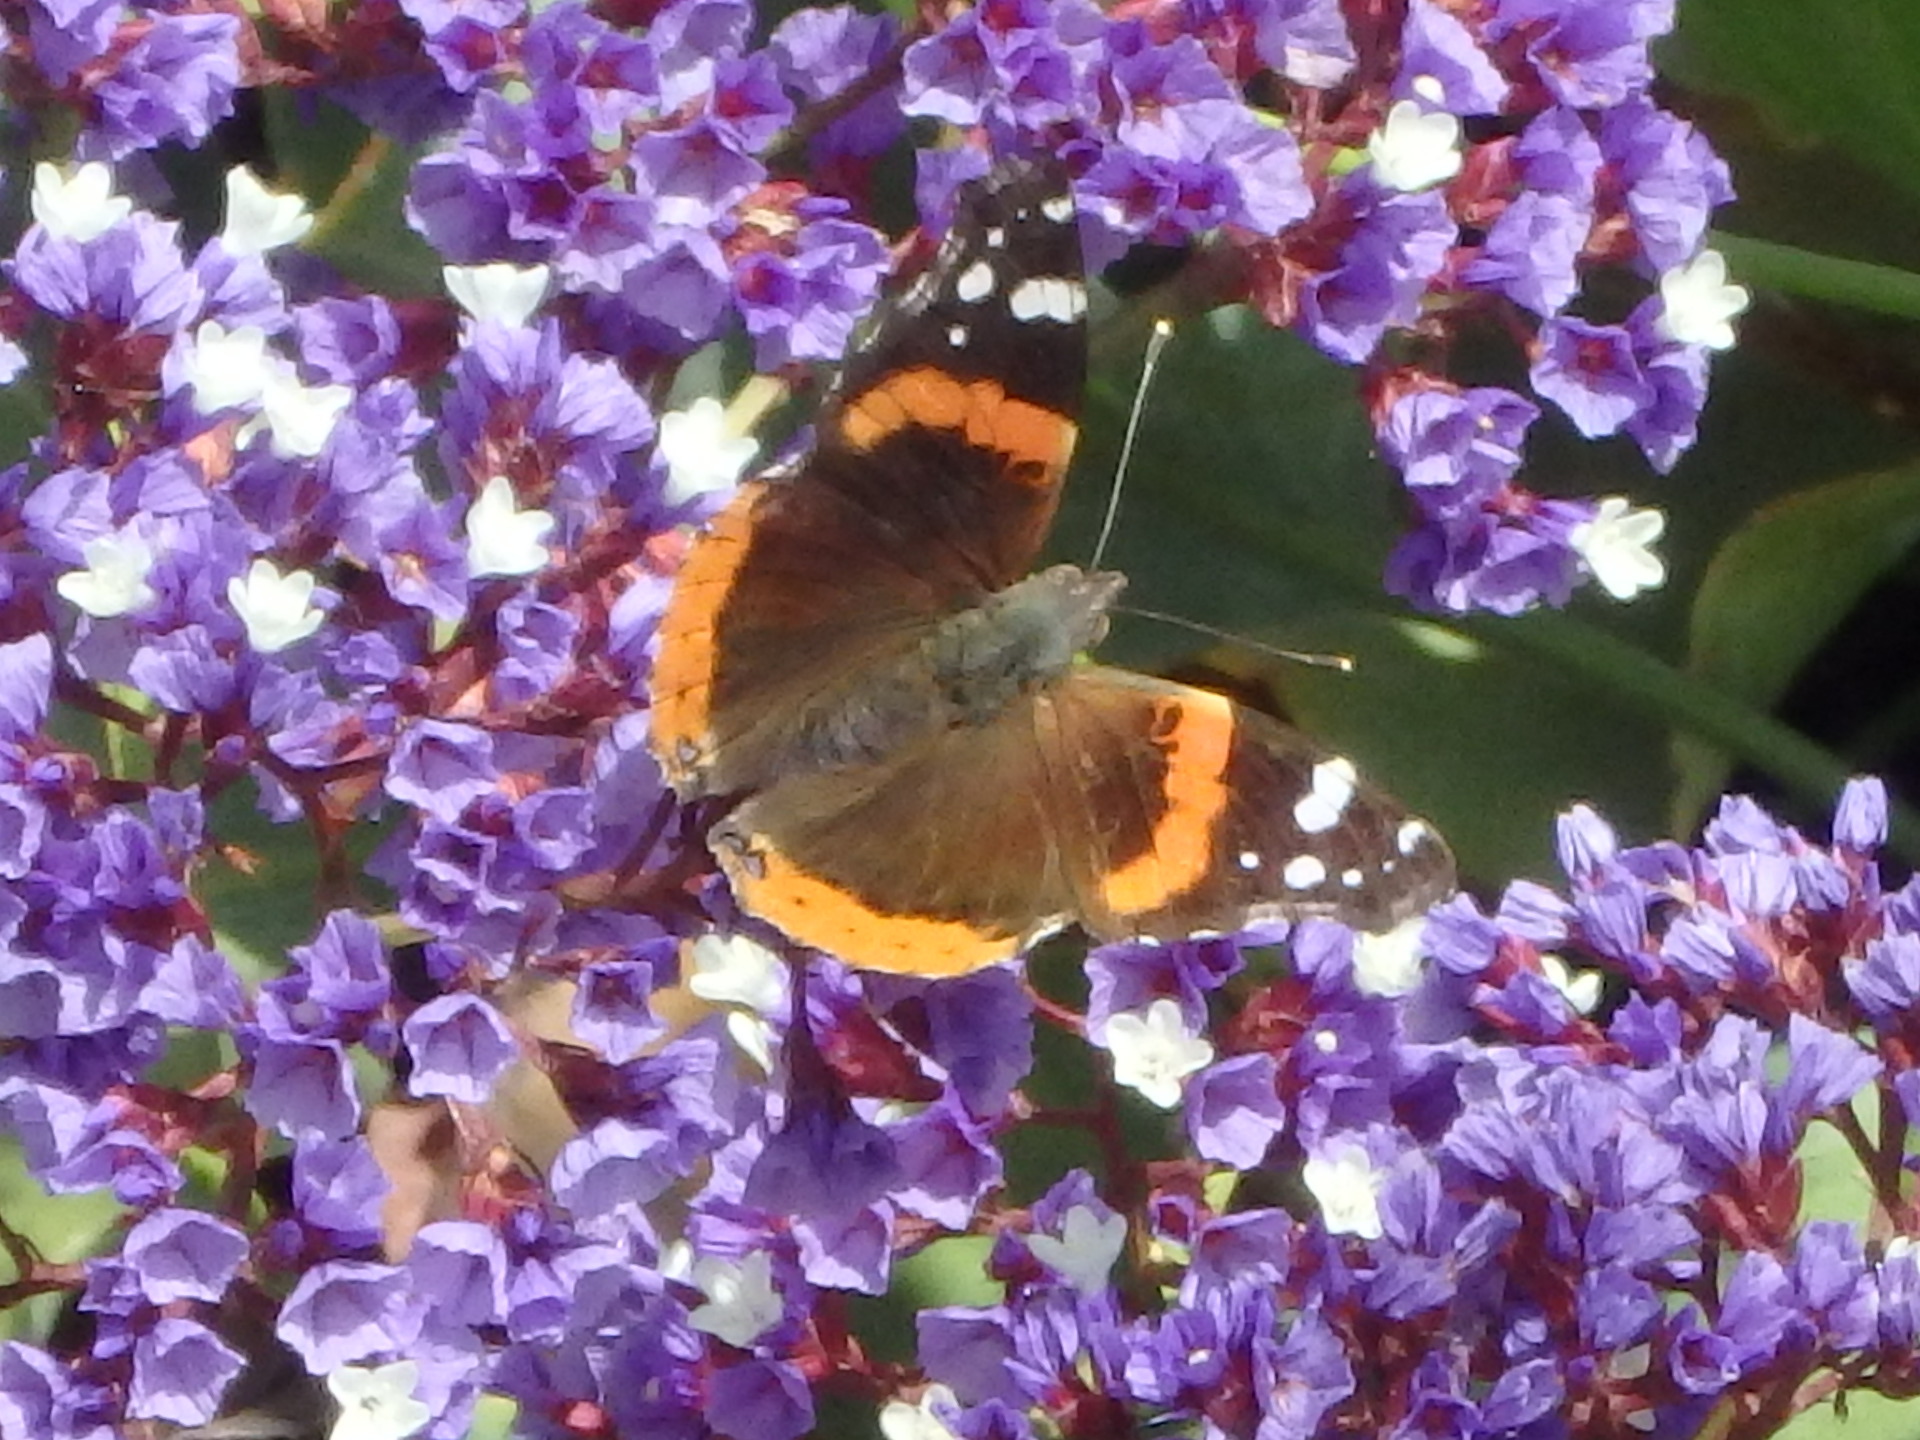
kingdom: Animalia
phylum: Arthropoda
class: Insecta
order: Lepidoptera
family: Nymphalidae
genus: Vanessa
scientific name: Vanessa atalanta
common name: Red admiral
